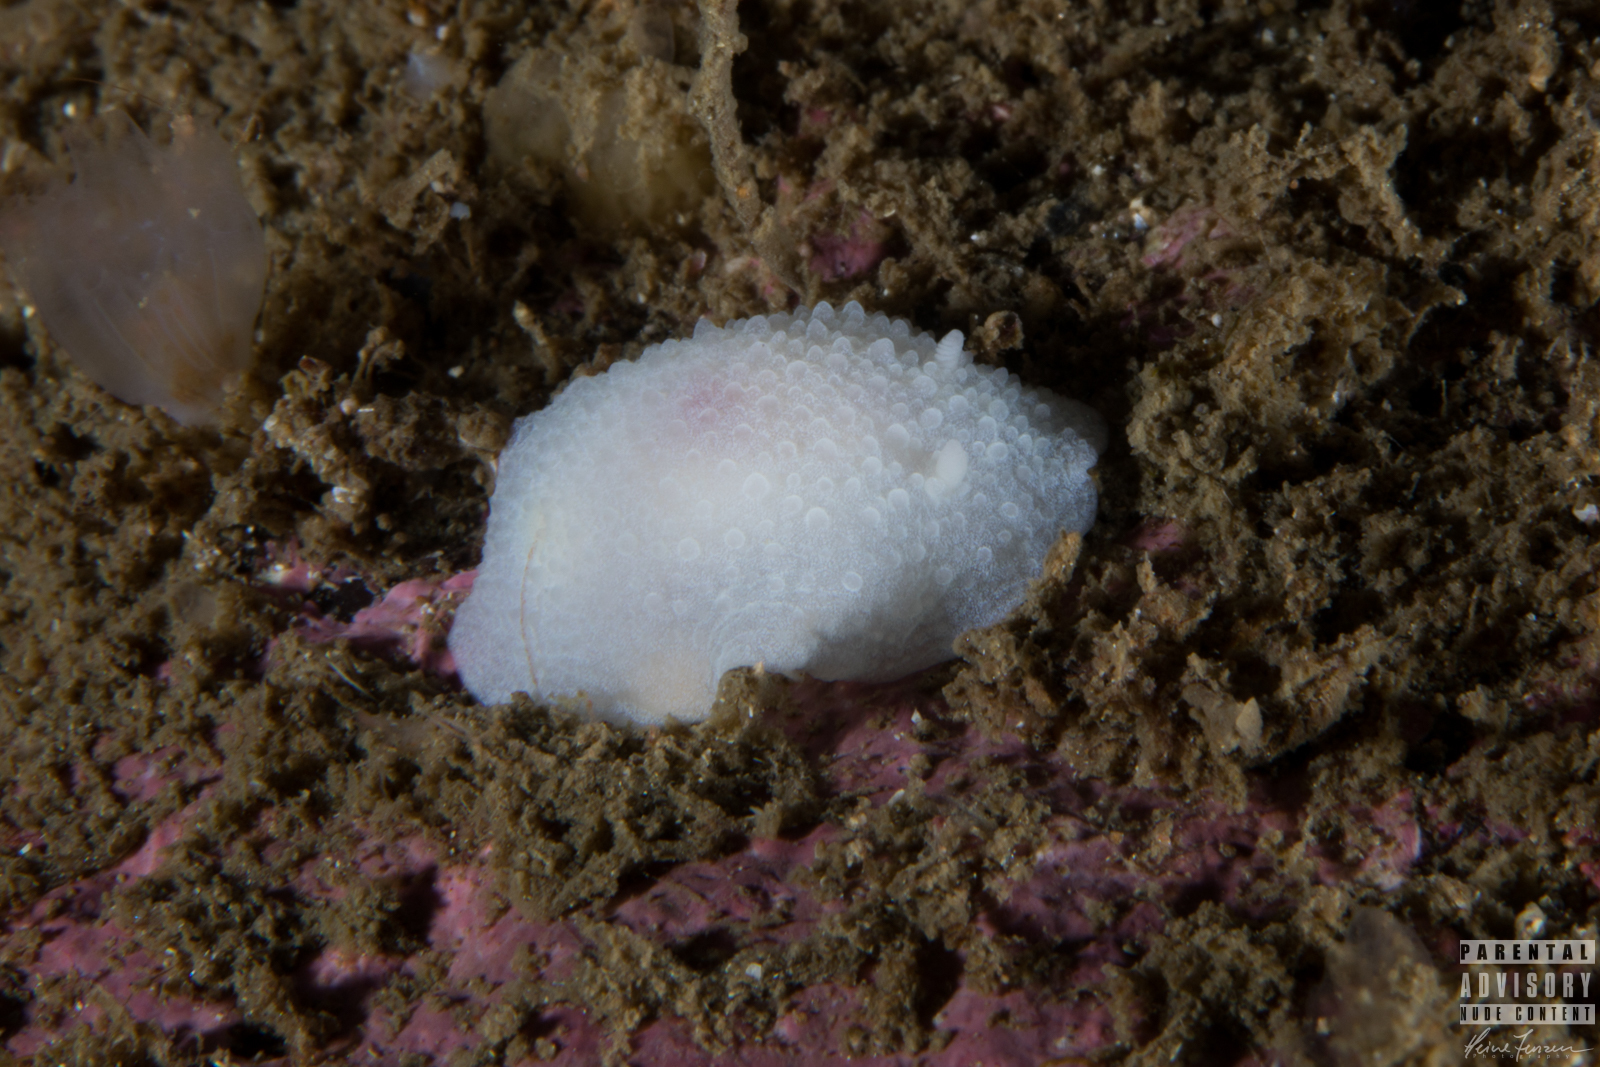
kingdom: Animalia
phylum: Mollusca
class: Gastropoda
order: Nudibranchia
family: Cadlinidae
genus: Aldisa
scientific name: Aldisa zetlandica
